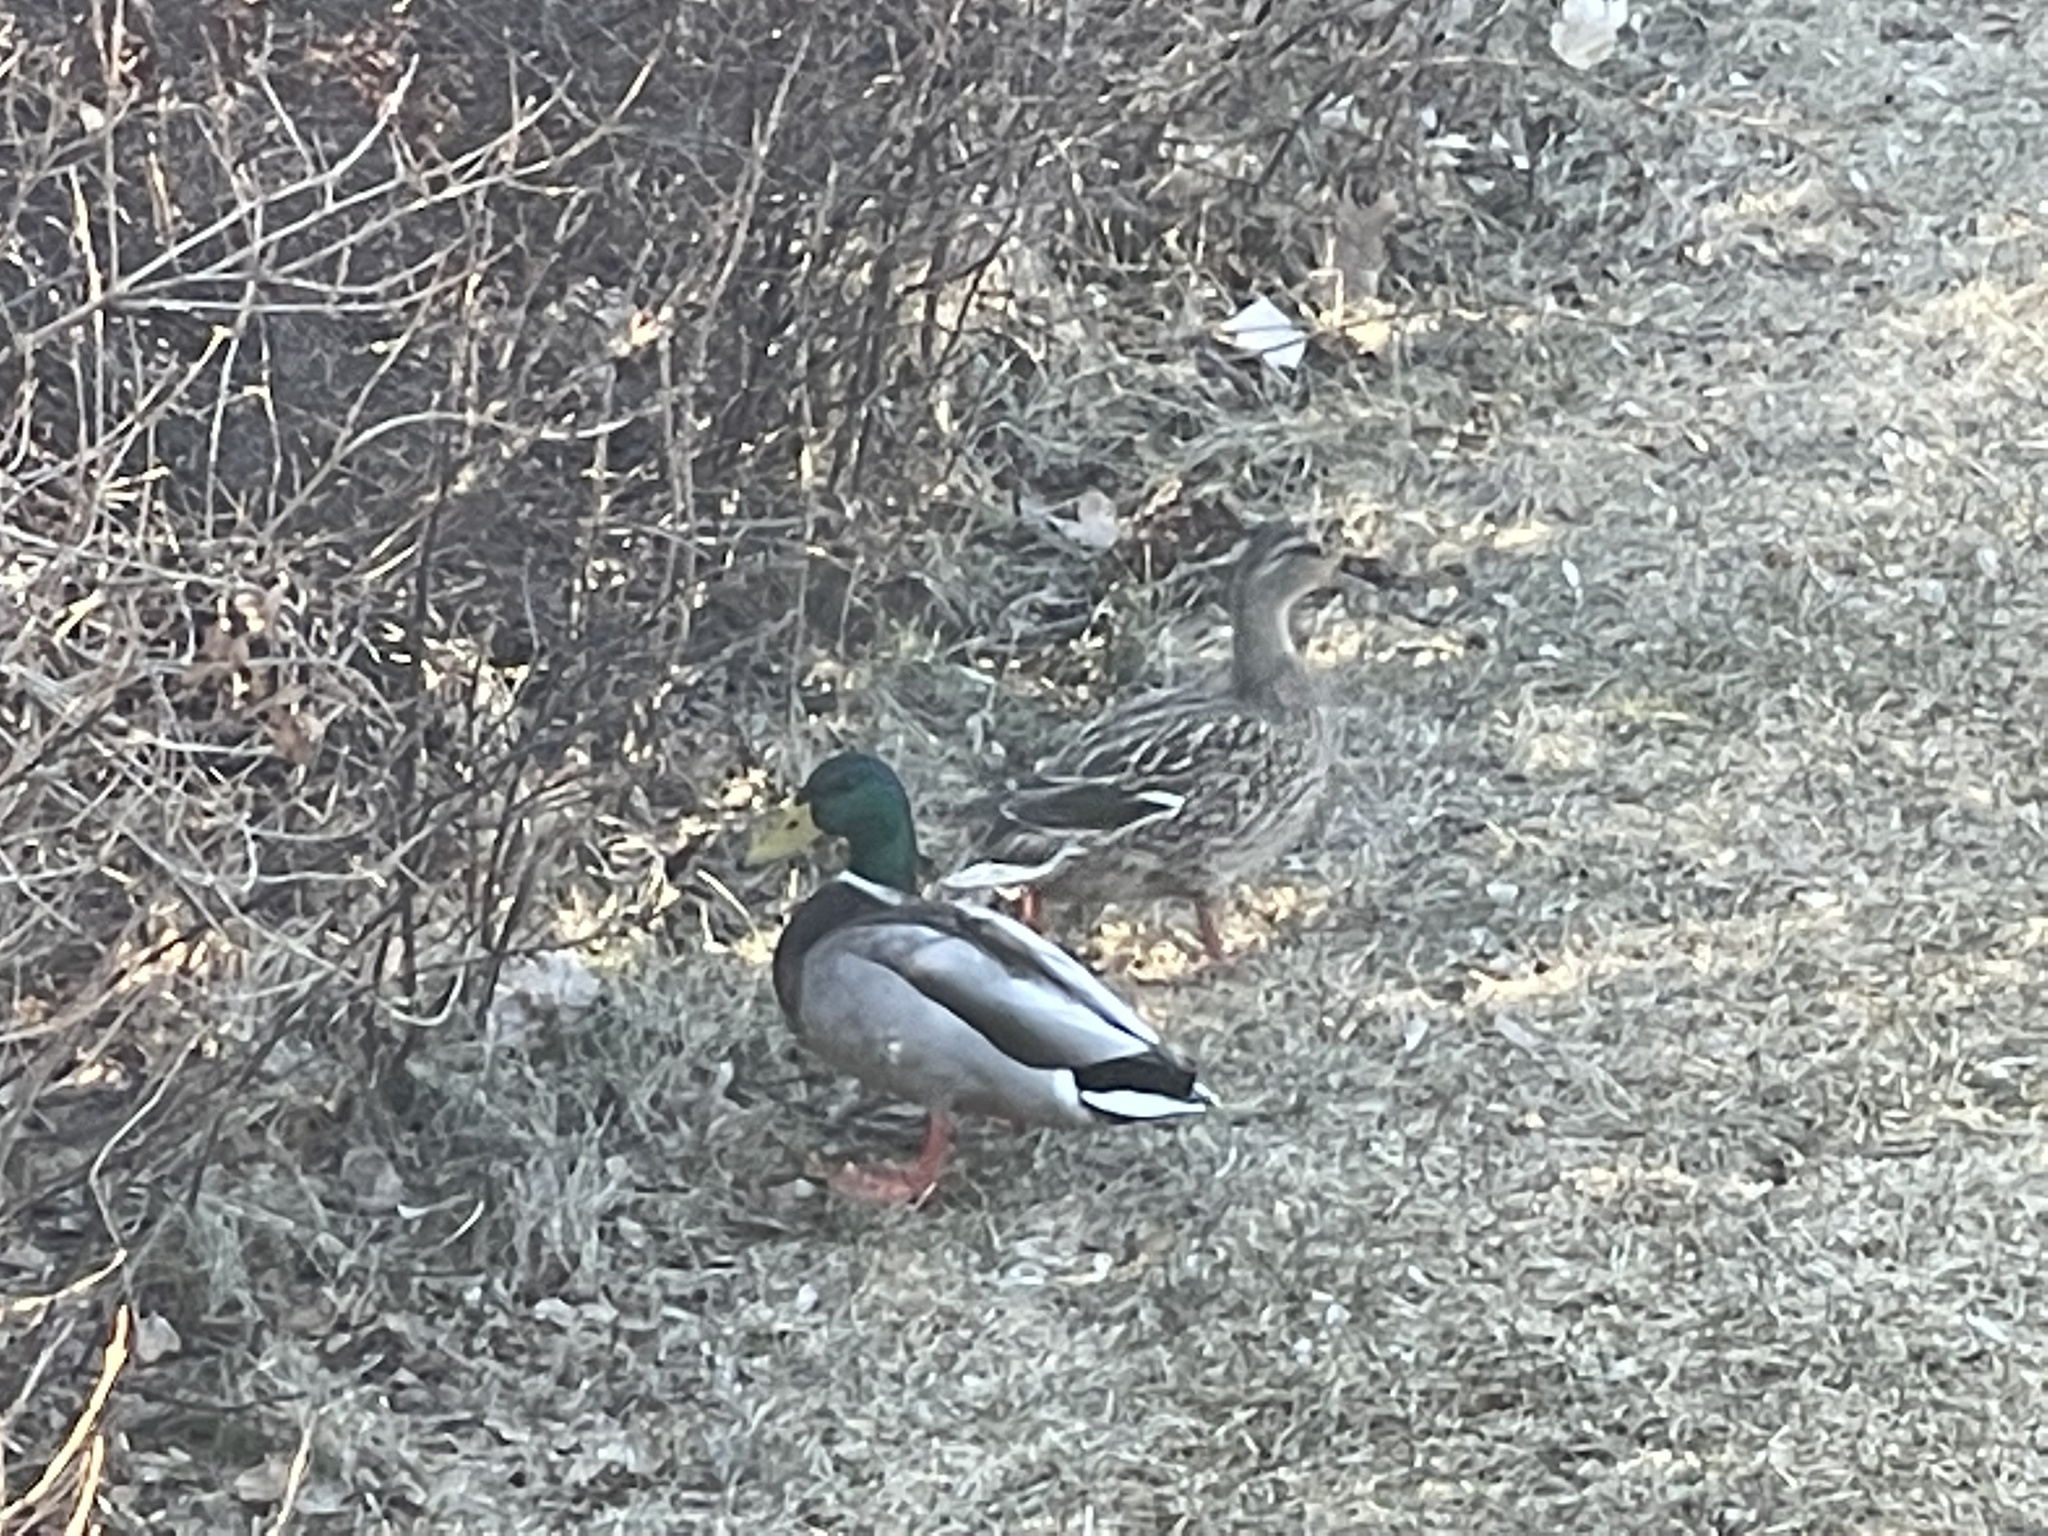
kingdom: Animalia
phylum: Chordata
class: Aves
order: Anseriformes
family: Anatidae
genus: Anas
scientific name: Anas platyrhynchos
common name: Mallard
